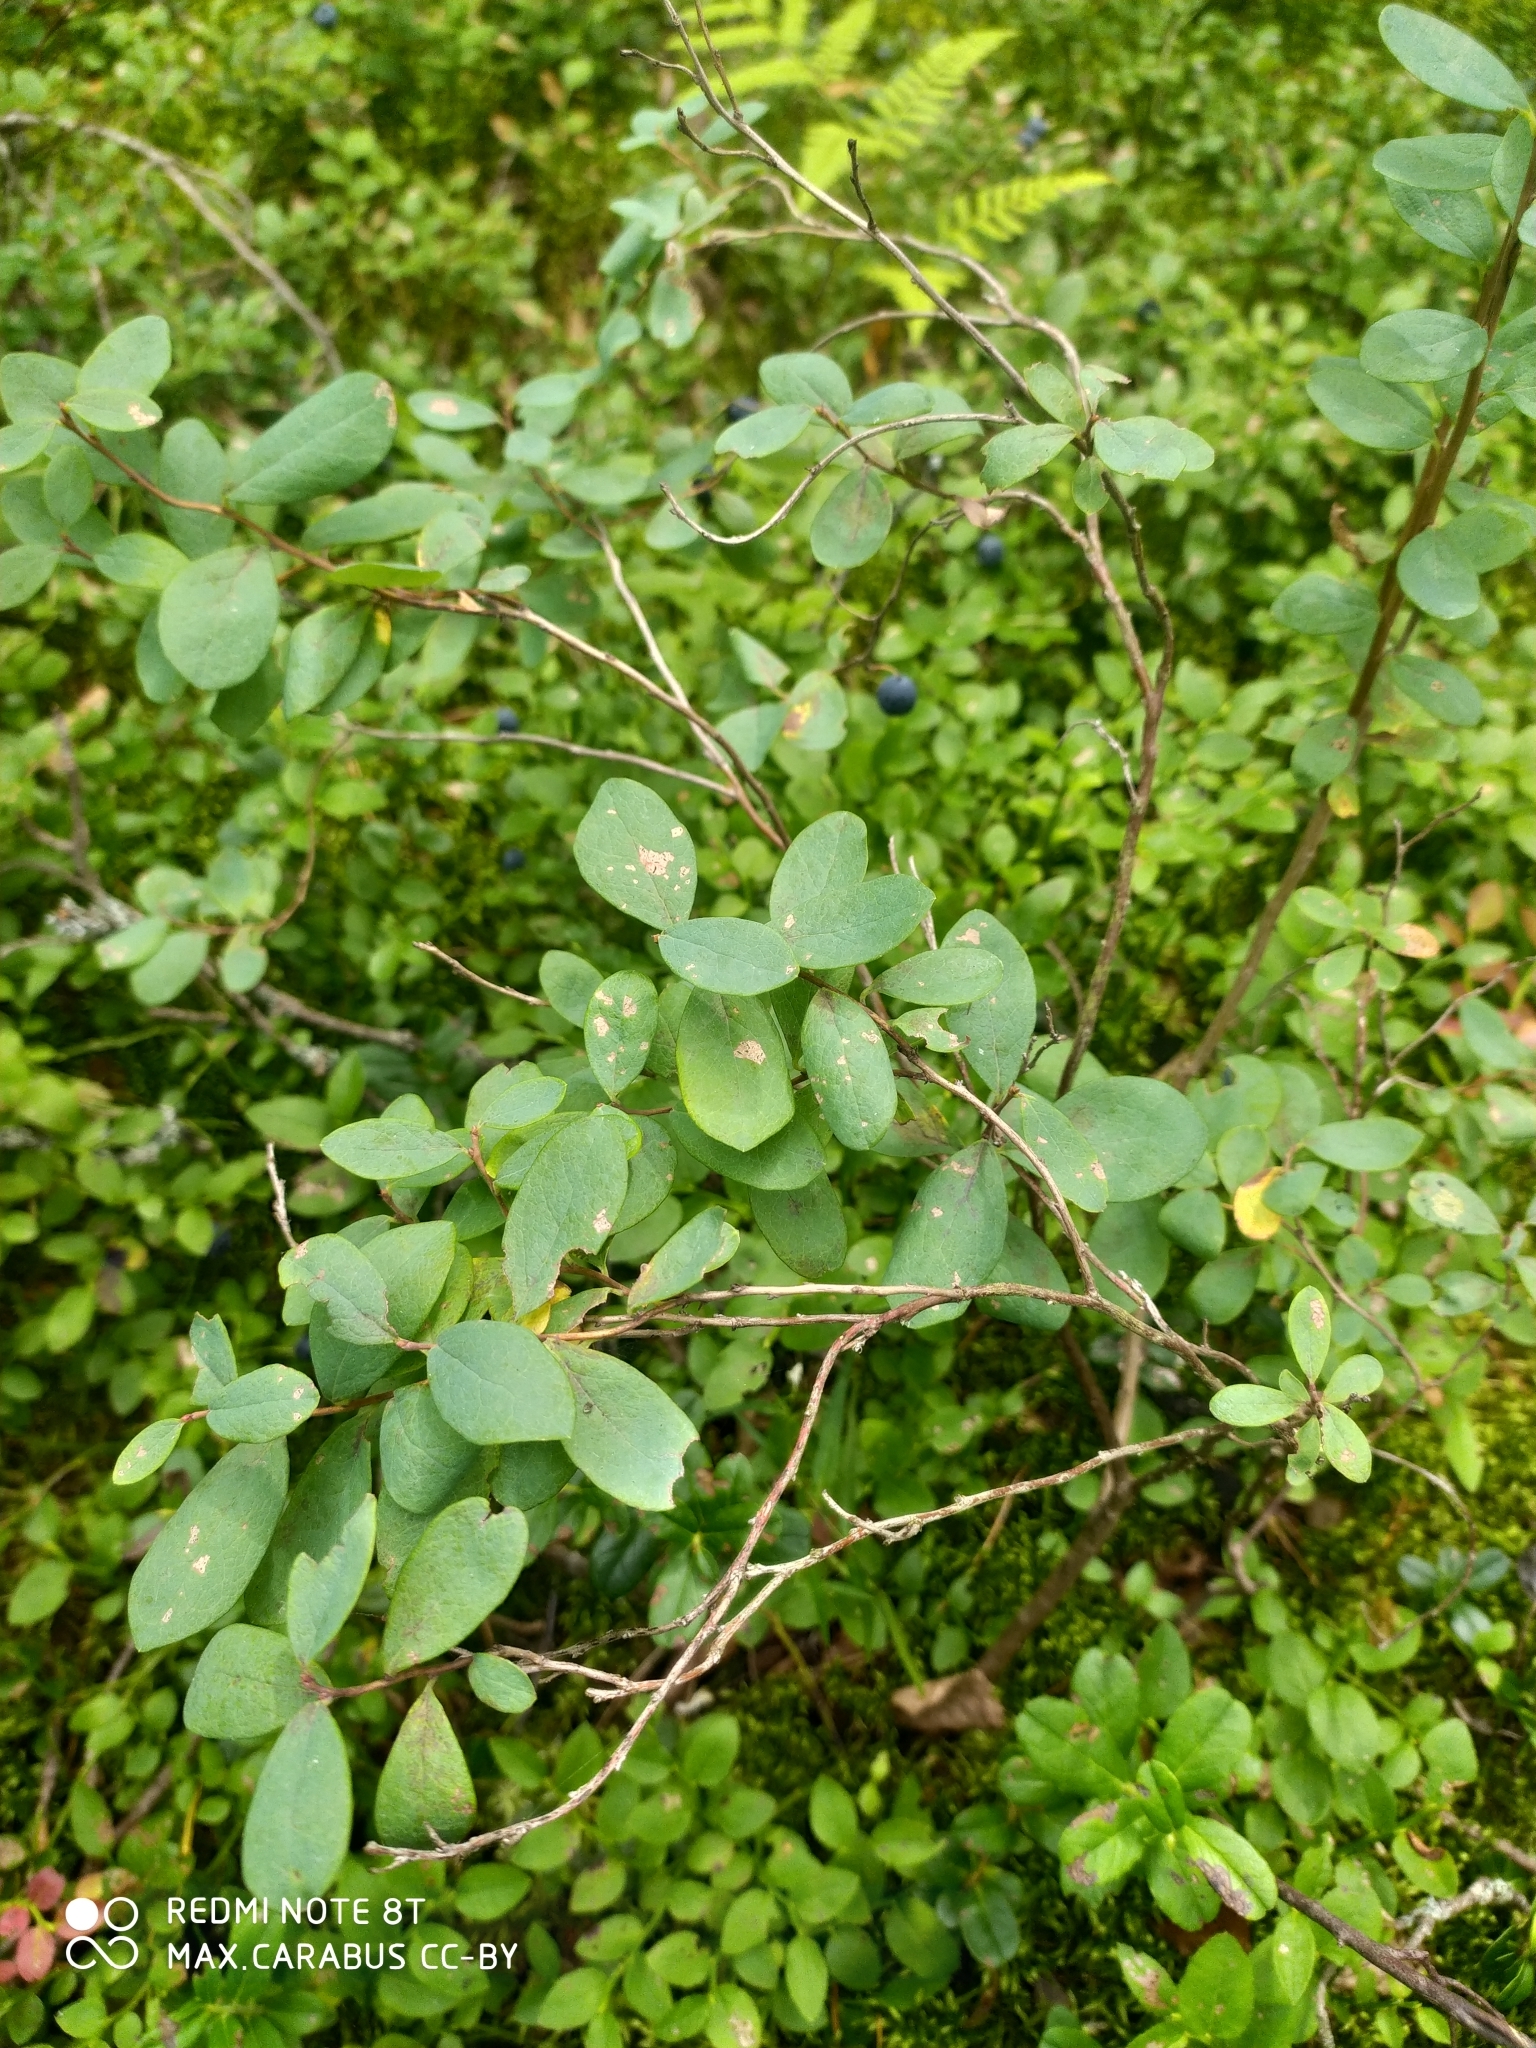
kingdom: Plantae
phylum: Tracheophyta
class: Magnoliopsida
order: Ericales
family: Ericaceae
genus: Vaccinium
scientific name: Vaccinium uliginosum
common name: Bog bilberry
